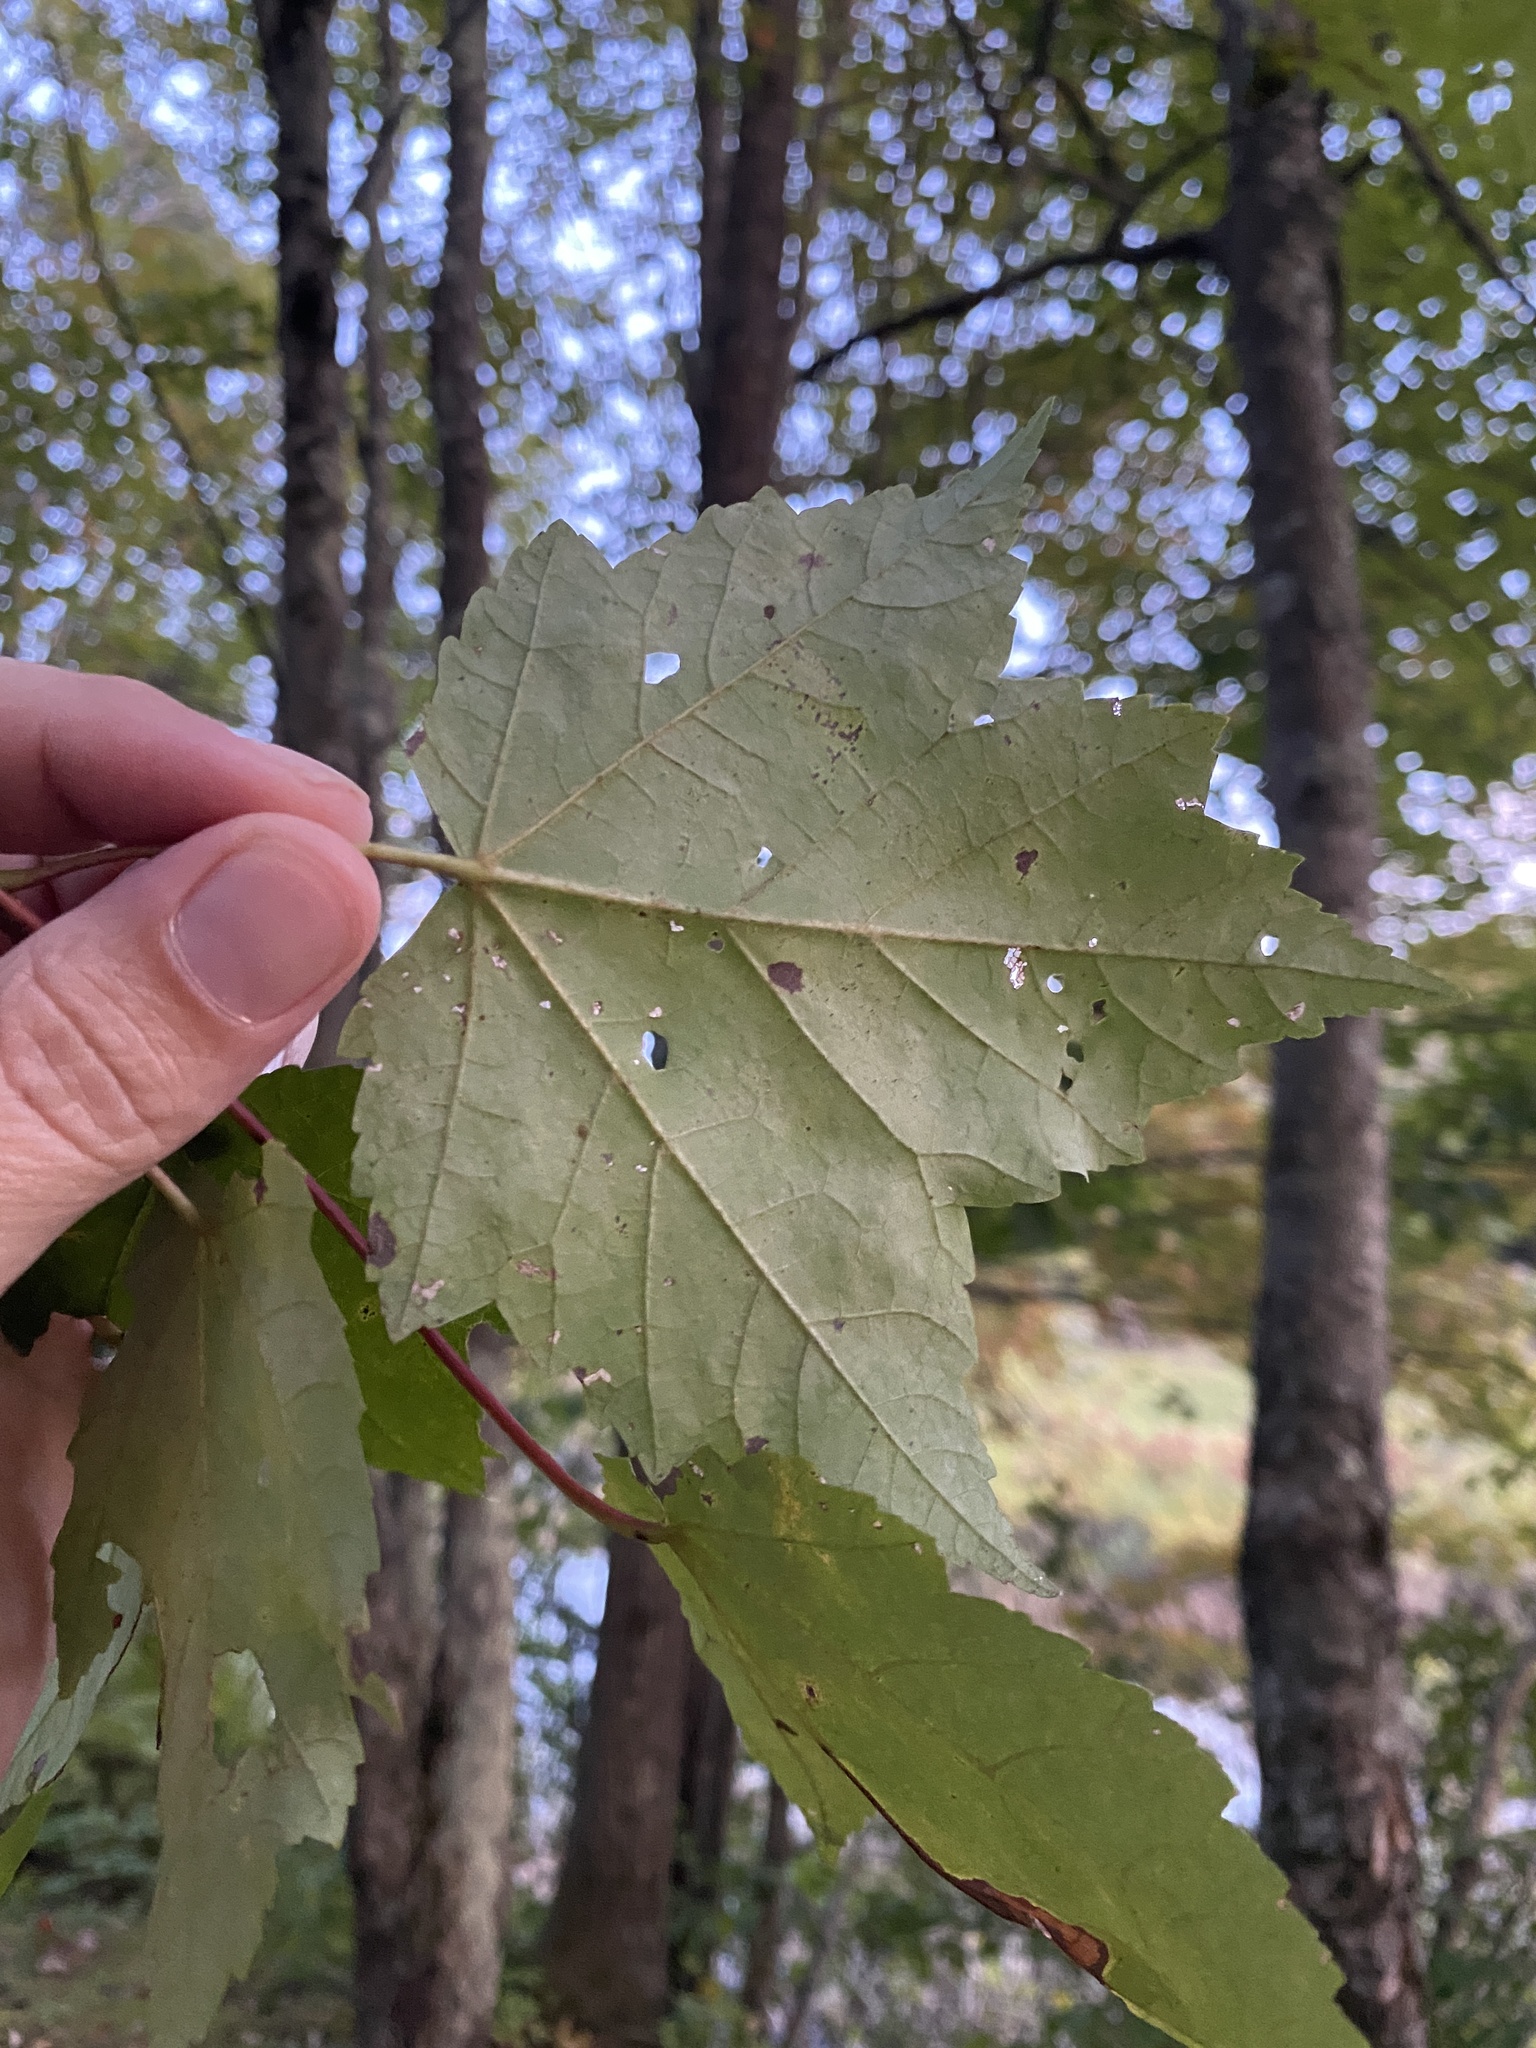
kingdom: Plantae
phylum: Tracheophyta
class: Magnoliopsida
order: Sapindales
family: Sapindaceae
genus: Acer
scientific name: Acer rubrum
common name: Red maple
